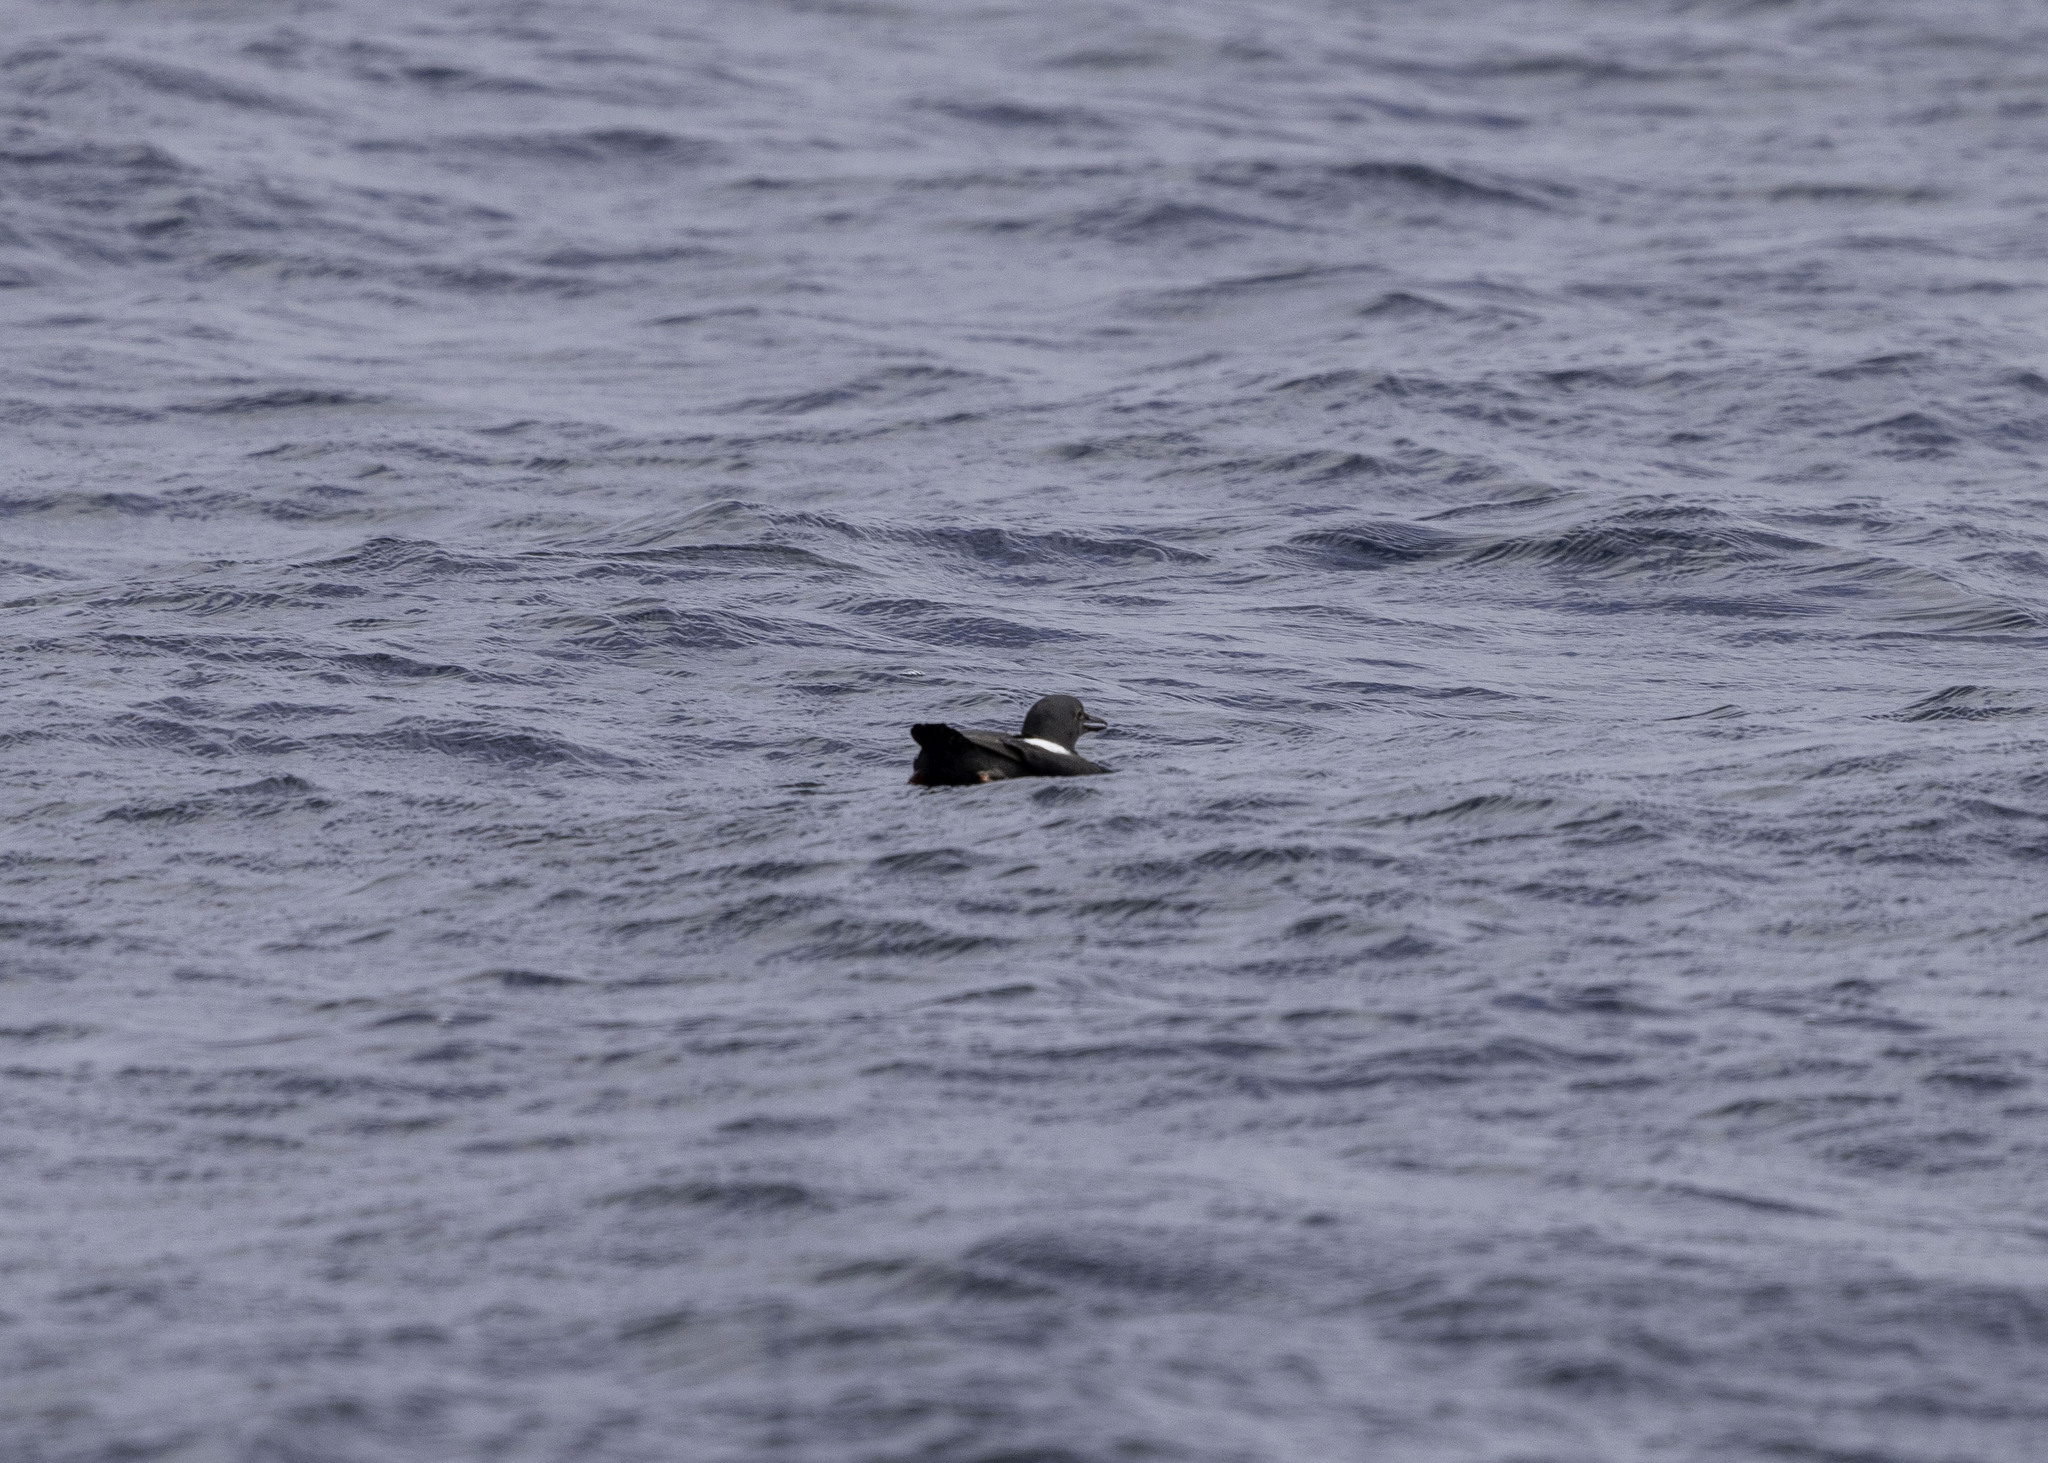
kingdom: Animalia
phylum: Chordata
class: Aves
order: Charadriiformes
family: Alcidae
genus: Cepphus
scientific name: Cepphus columba
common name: Pigeon guillemot
